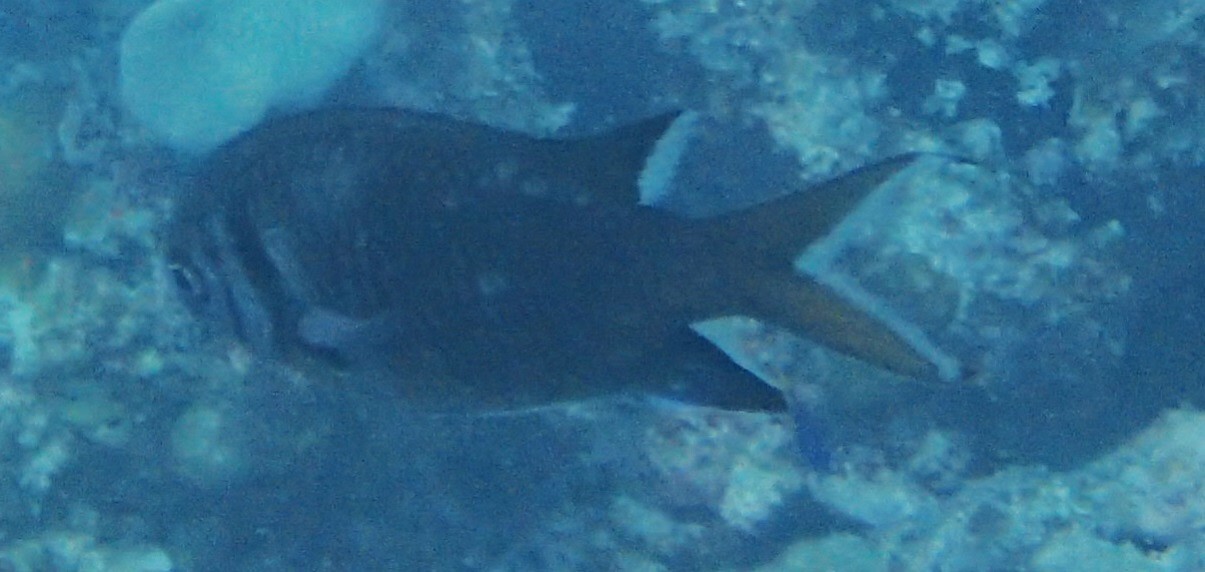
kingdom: Animalia
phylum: Chordata
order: Perciformes
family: Pomacentridae
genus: Chromis
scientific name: Chromis opercularis
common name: Doublebar chromis
